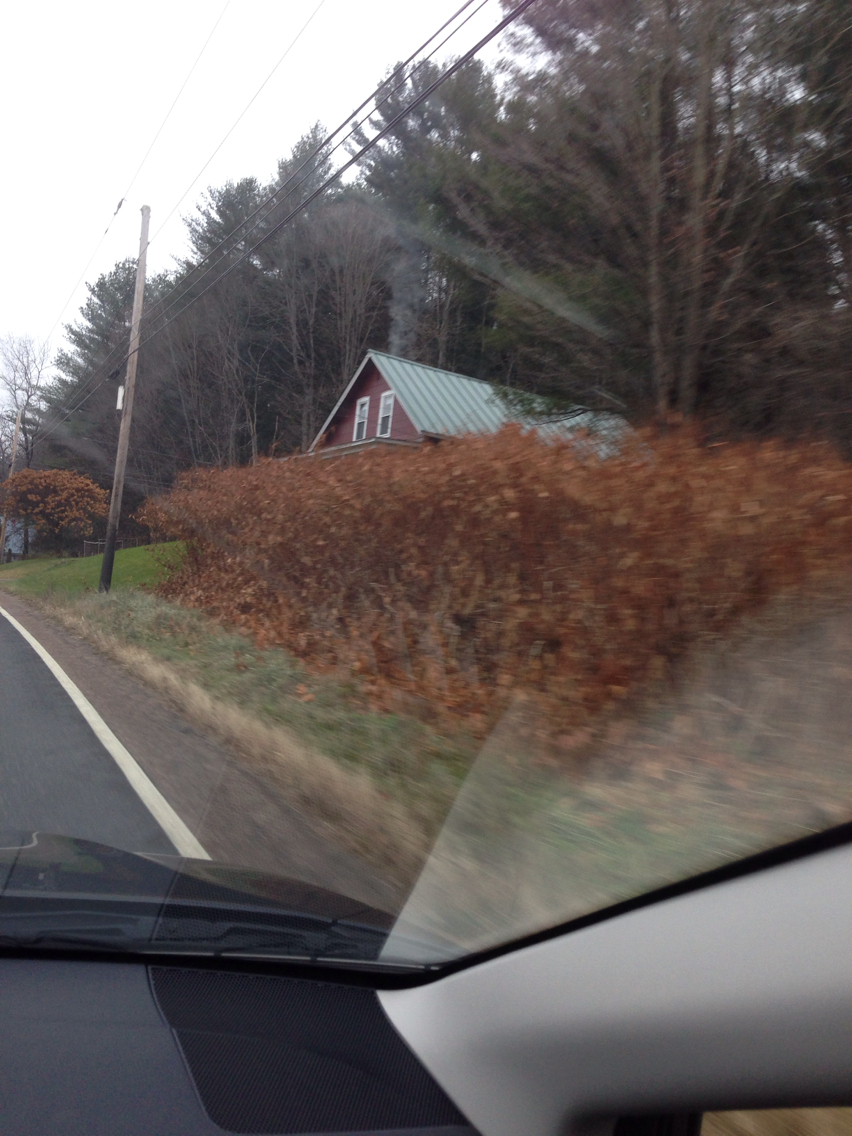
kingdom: Plantae
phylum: Tracheophyta
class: Magnoliopsida
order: Caryophyllales
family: Polygonaceae
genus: Reynoutria
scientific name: Reynoutria japonica
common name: Japanese knotweed
